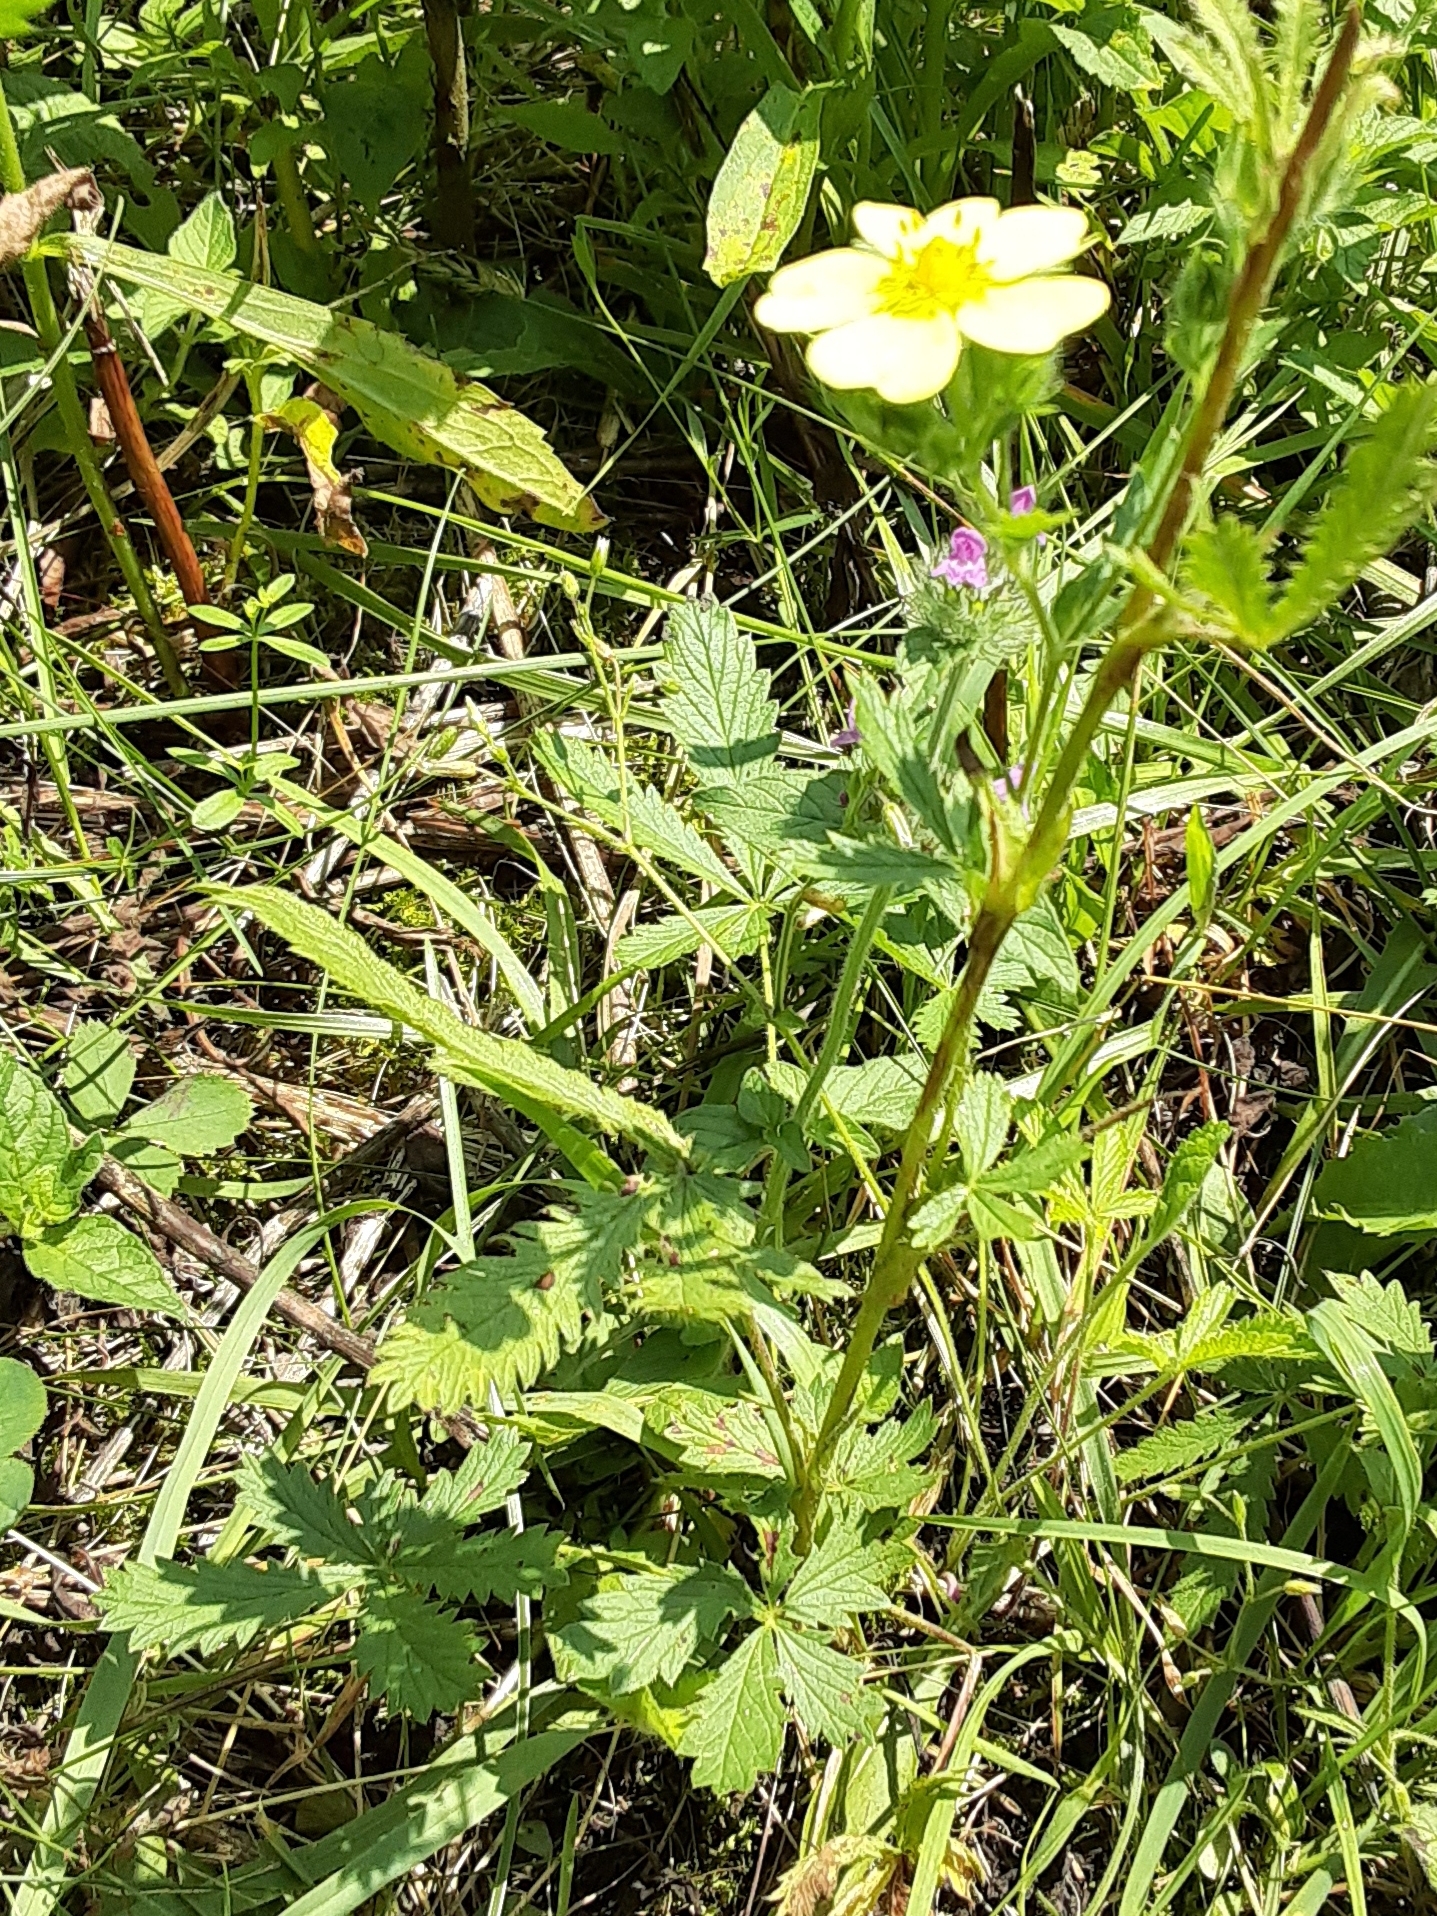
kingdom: Plantae
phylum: Tracheophyta
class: Magnoliopsida
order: Rosales
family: Rosaceae
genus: Potentilla
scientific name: Potentilla recta
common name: Sulphur cinquefoil
